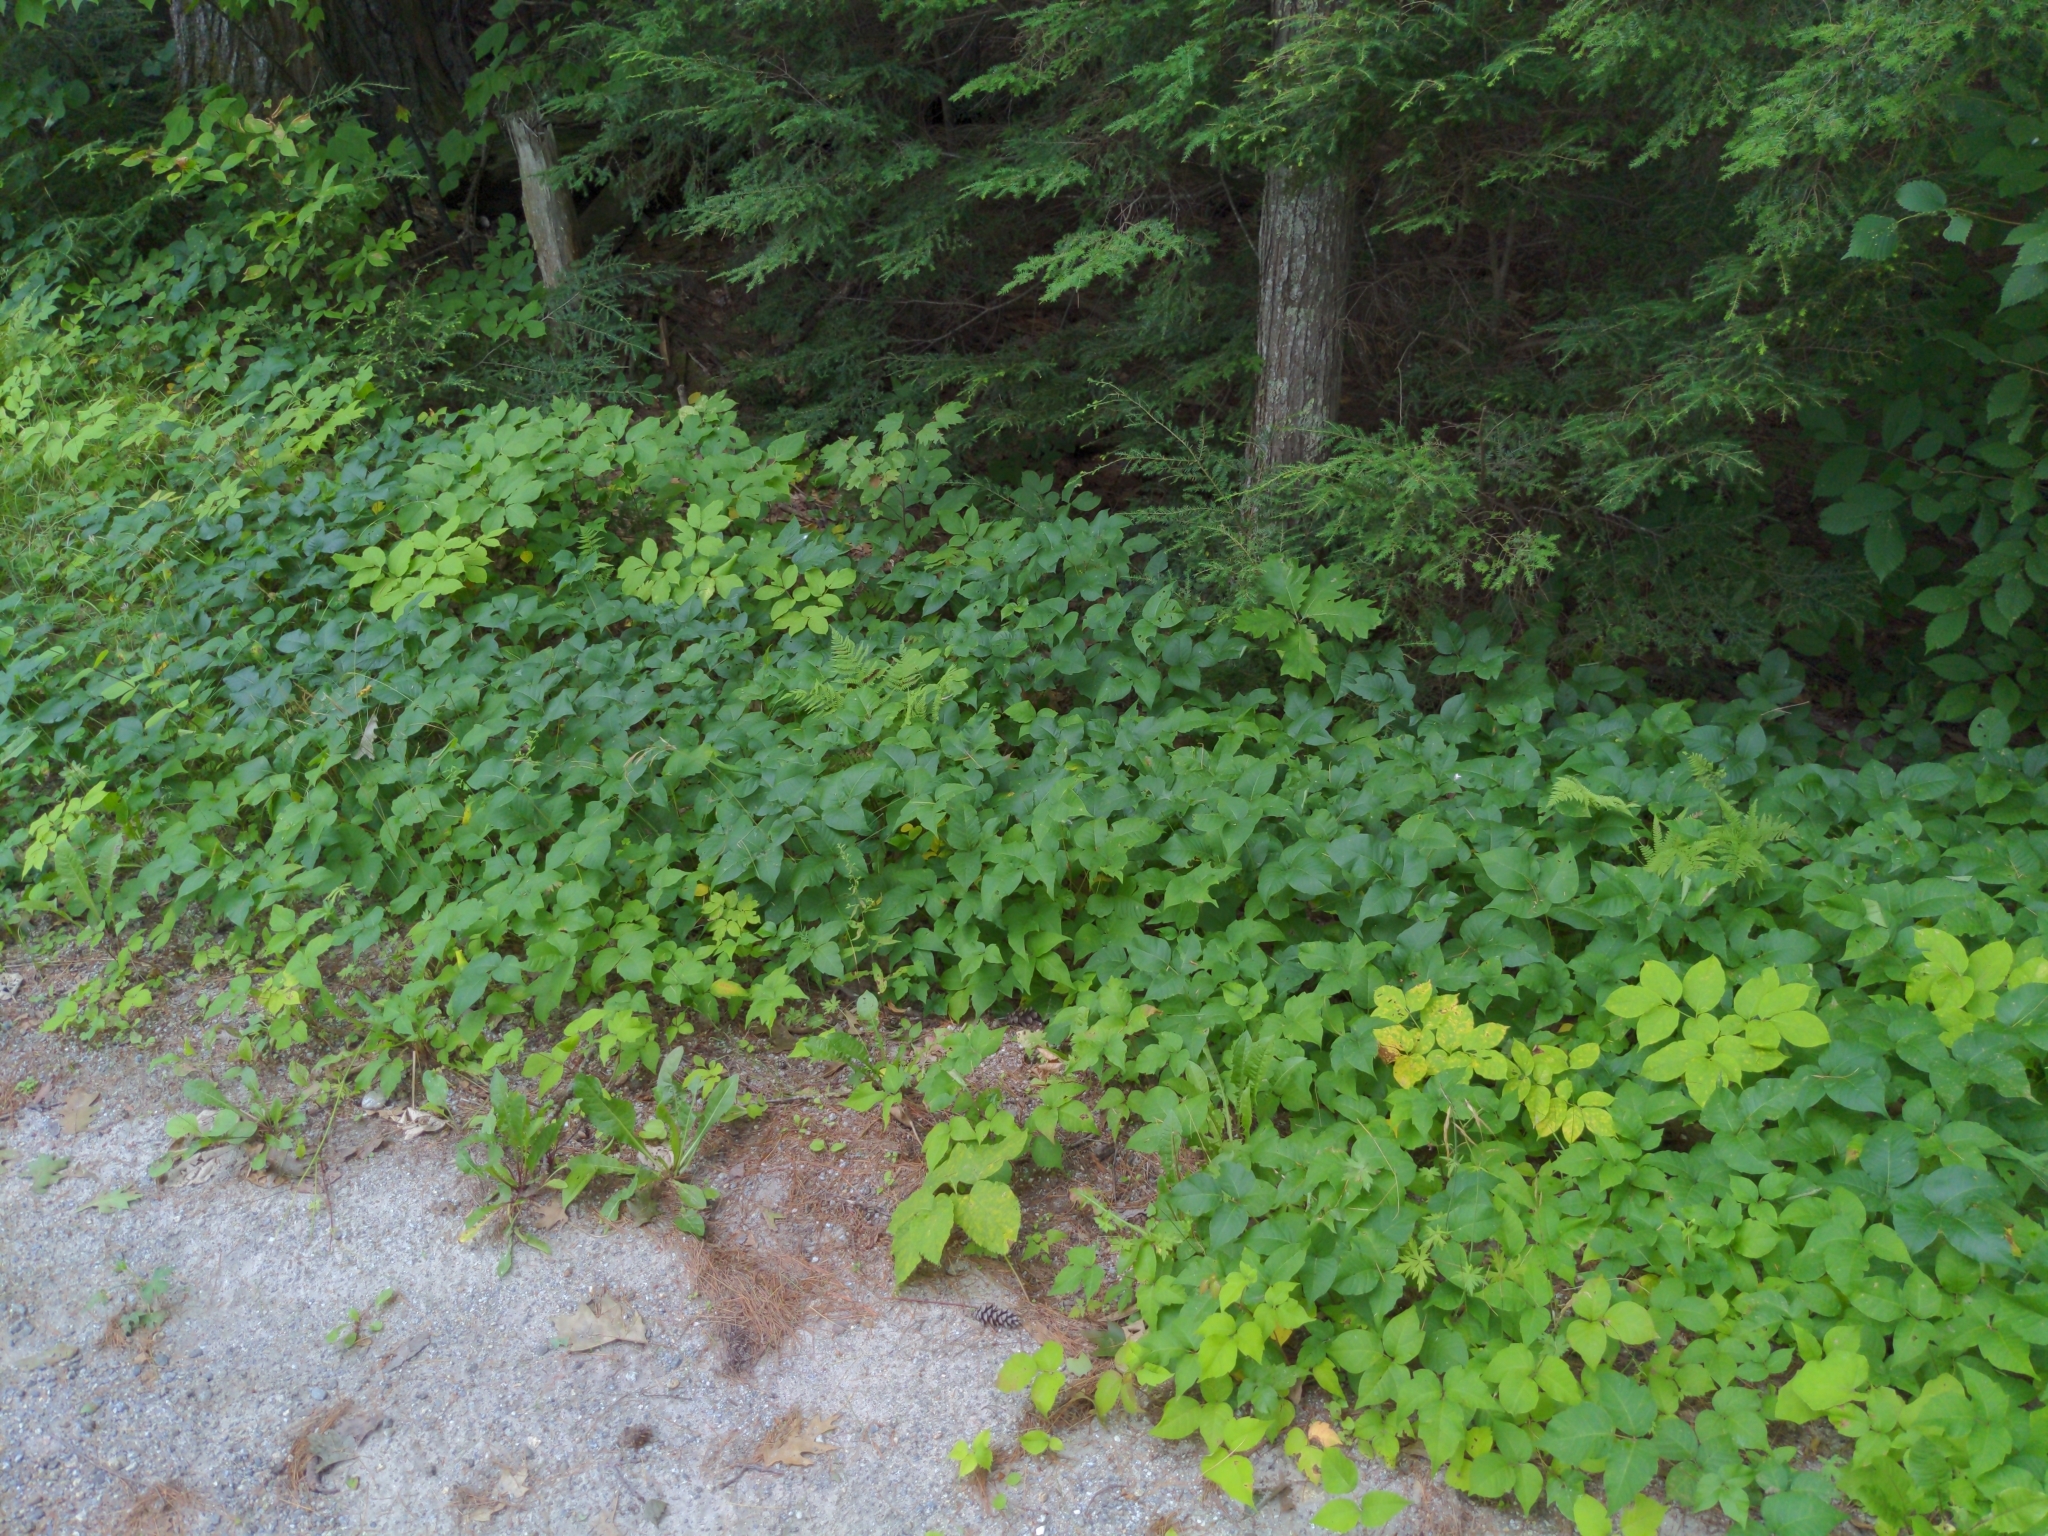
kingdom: Plantae
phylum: Tracheophyta
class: Magnoliopsida
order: Sapindales
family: Anacardiaceae
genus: Toxicodendron
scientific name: Toxicodendron radicans
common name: Poison ivy
